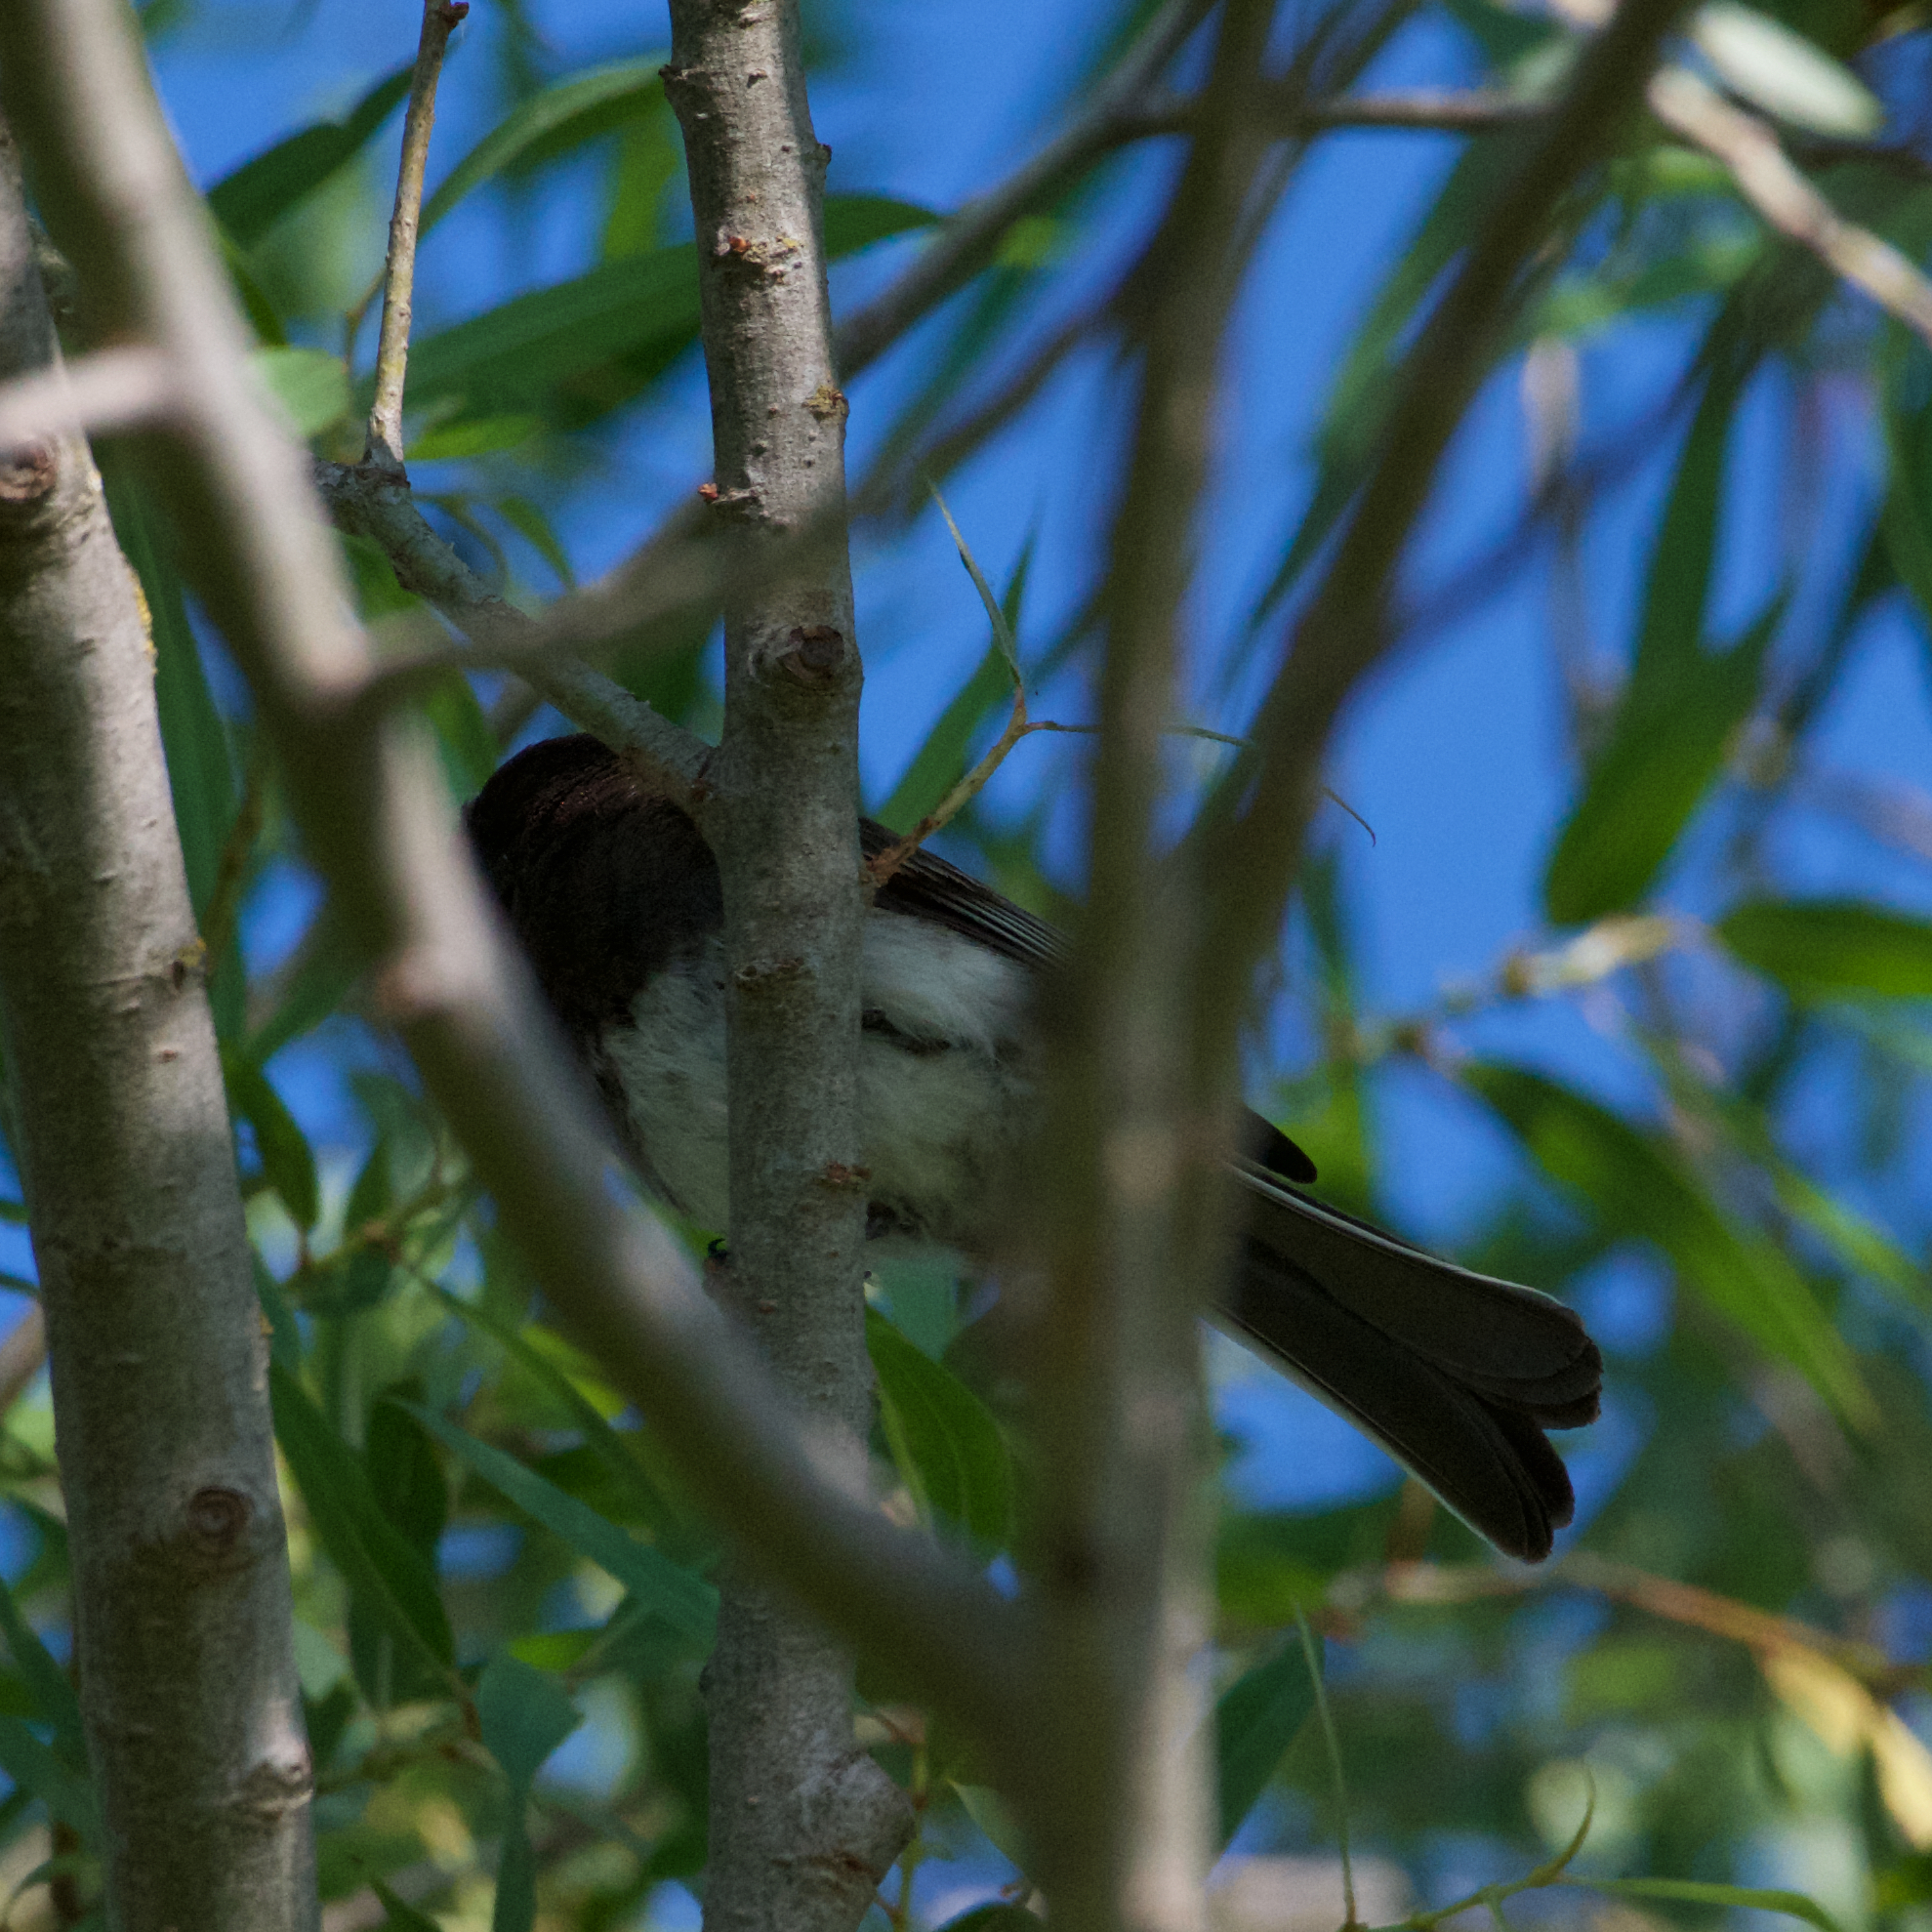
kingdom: Animalia
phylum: Chordata
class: Aves
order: Passeriformes
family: Tyrannidae
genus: Sayornis
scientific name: Sayornis nigricans
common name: Black phoebe
